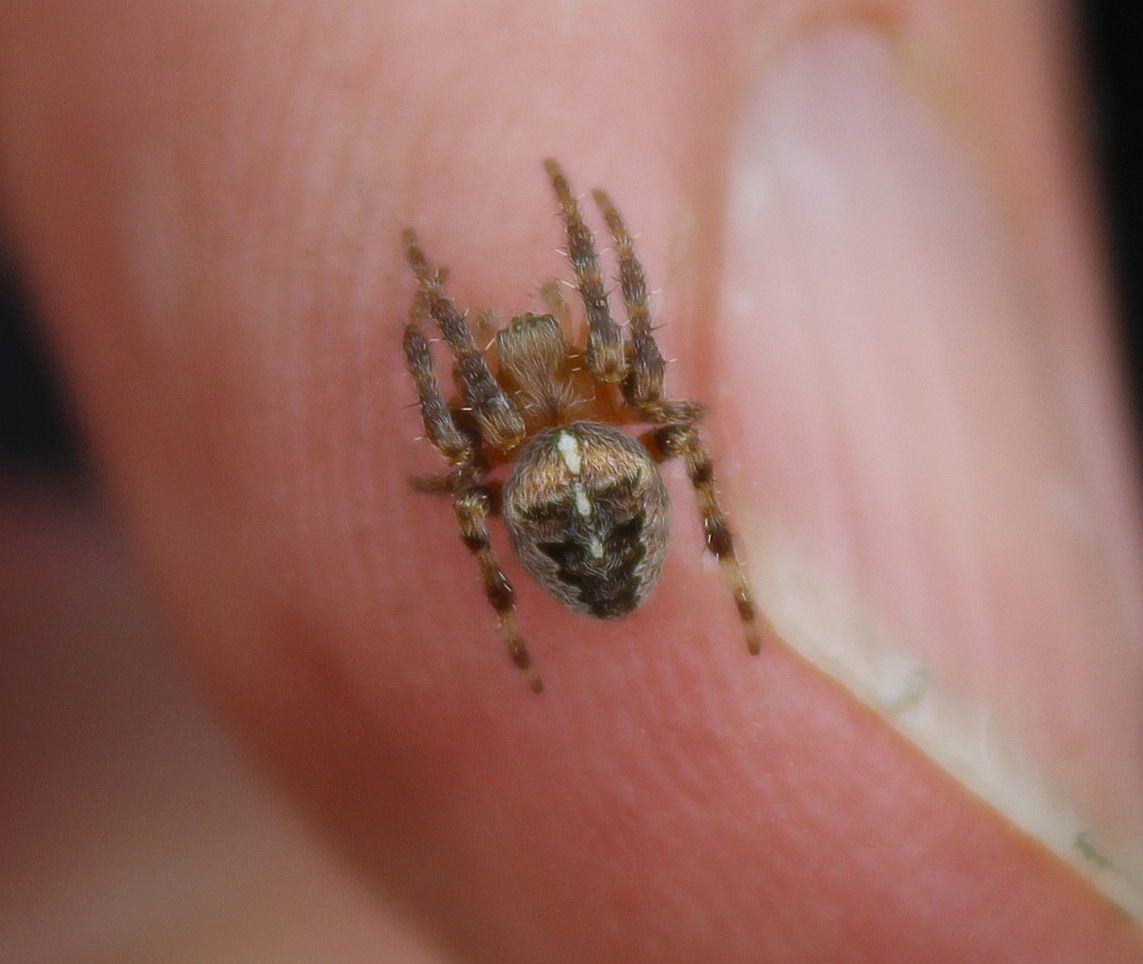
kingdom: Animalia
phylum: Arthropoda
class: Arachnida
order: Araneae
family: Araneidae
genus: Araneus
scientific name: Araneus diadematus
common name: Cross orbweaver
